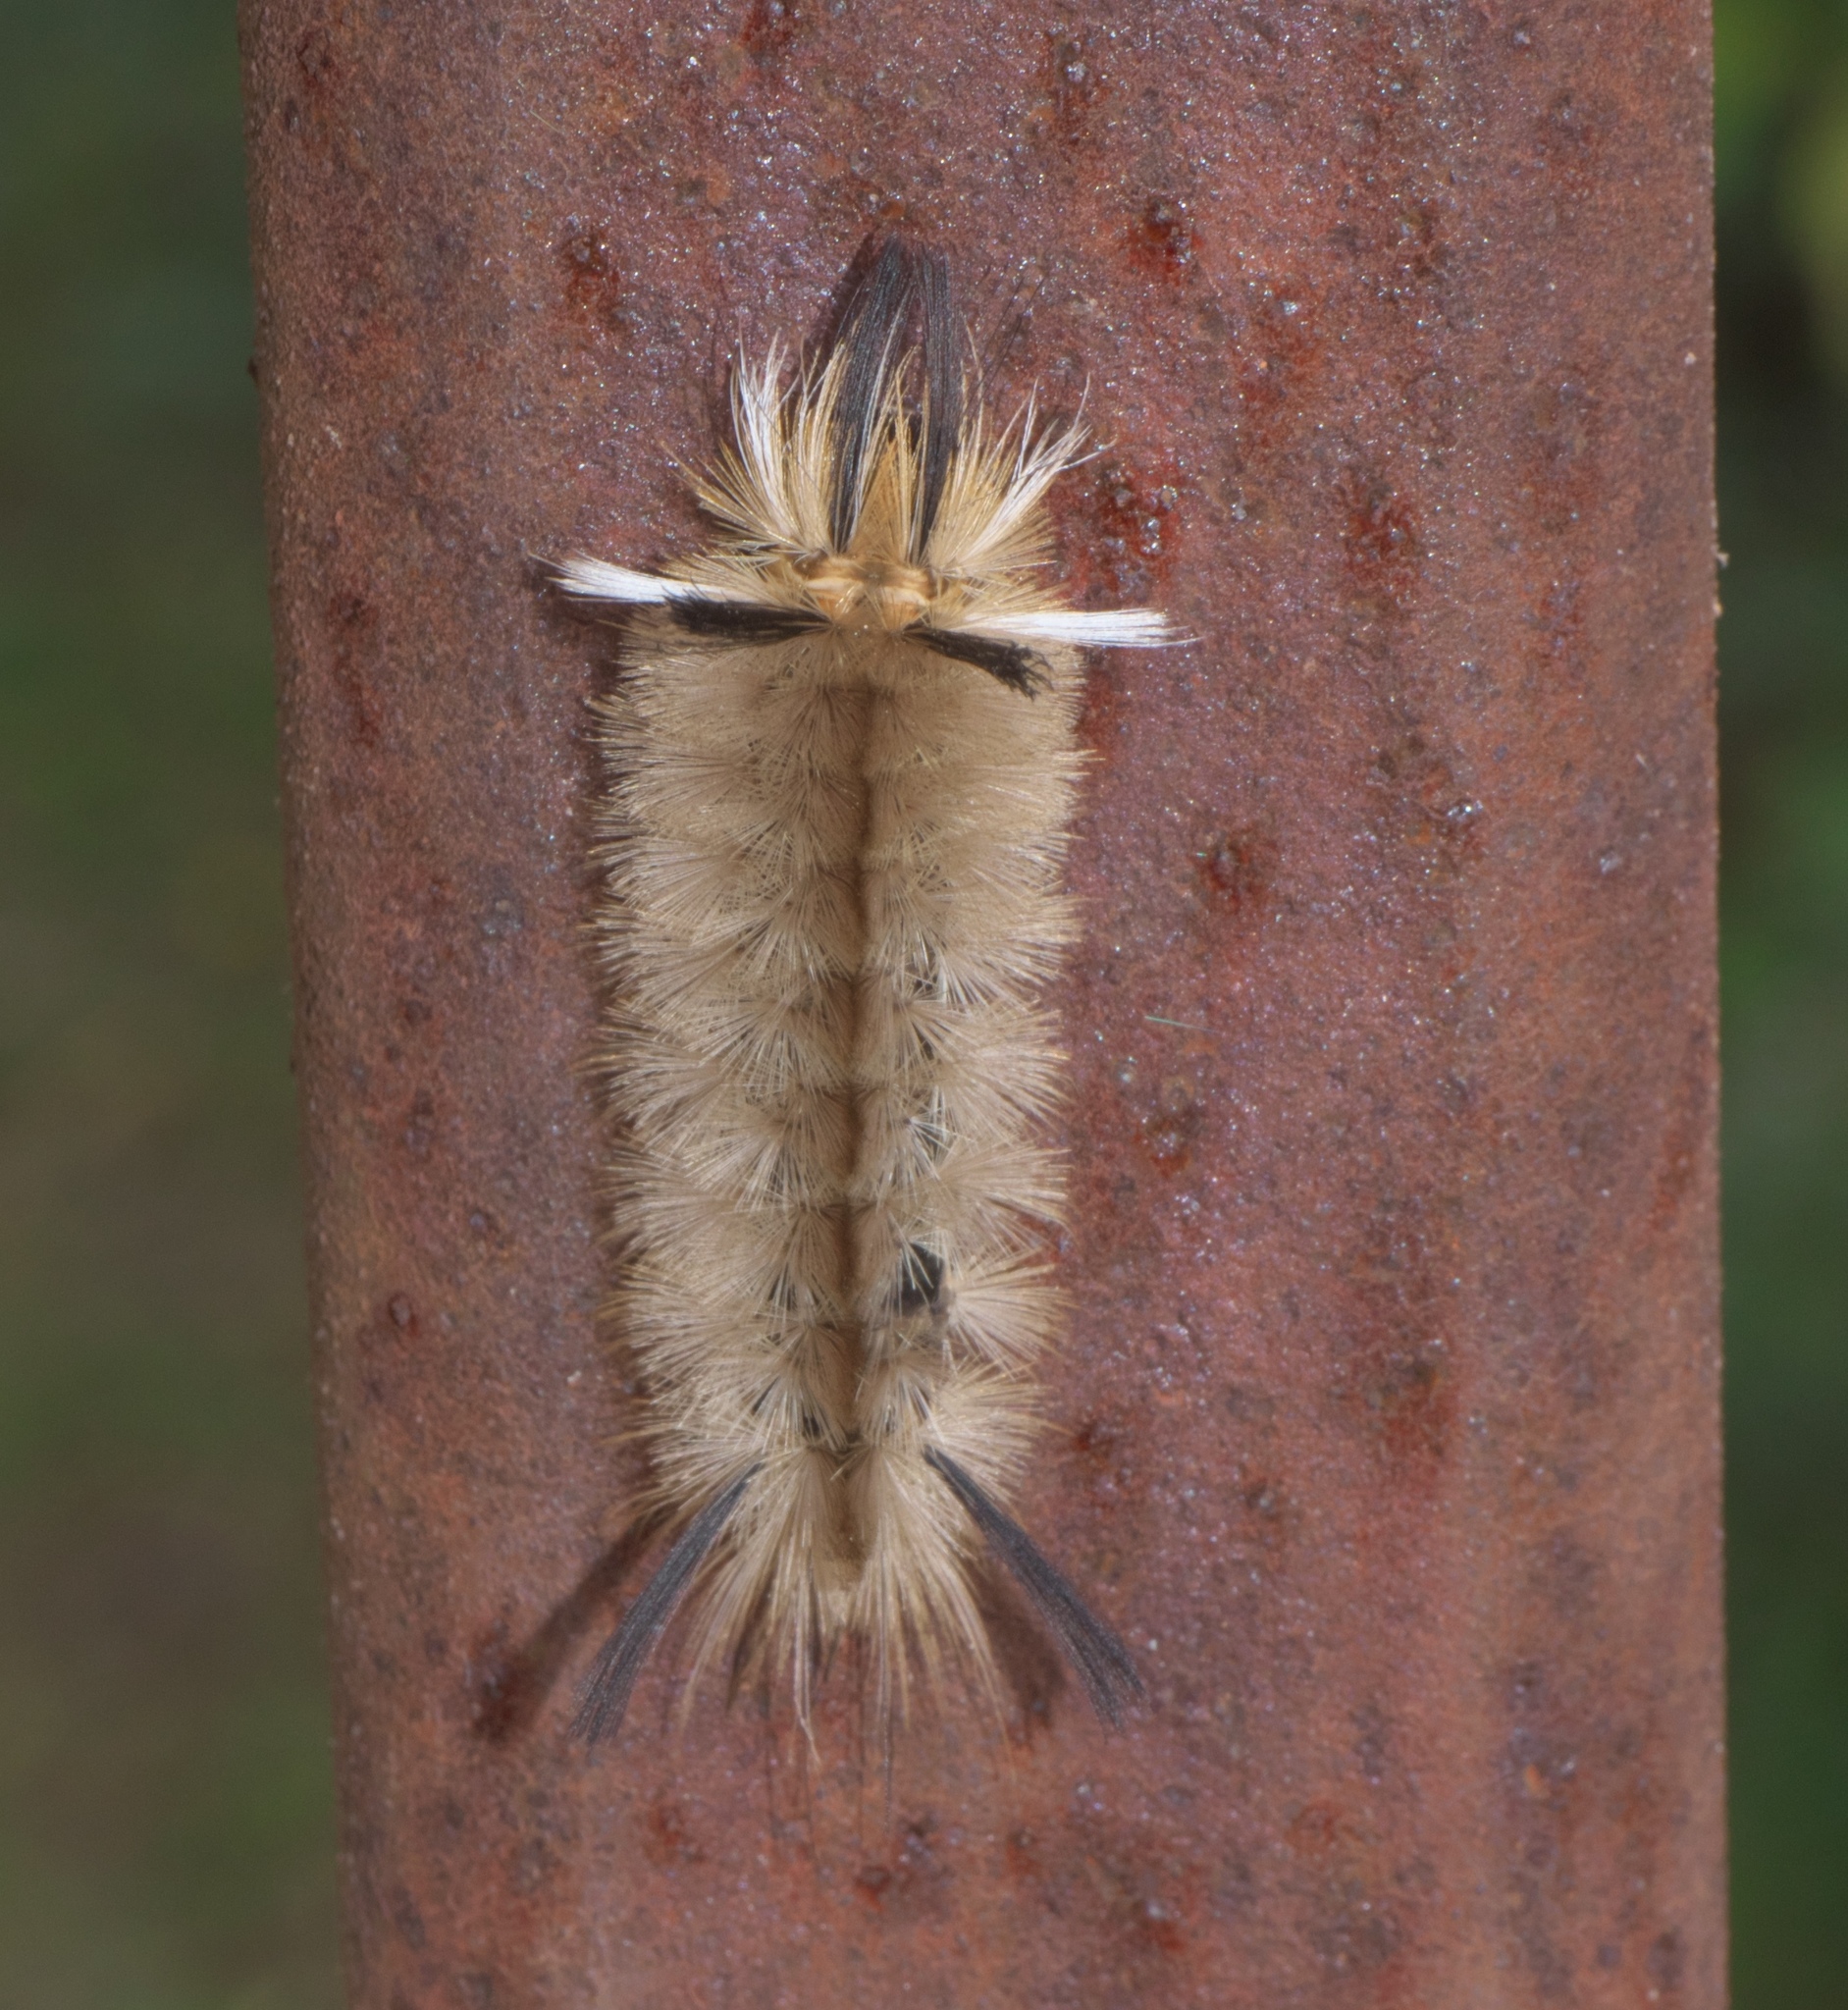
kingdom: Animalia
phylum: Arthropoda
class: Insecta
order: Lepidoptera
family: Erebidae
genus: Halysidota
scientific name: Halysidota tessellaris
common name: Banded tussock moth
